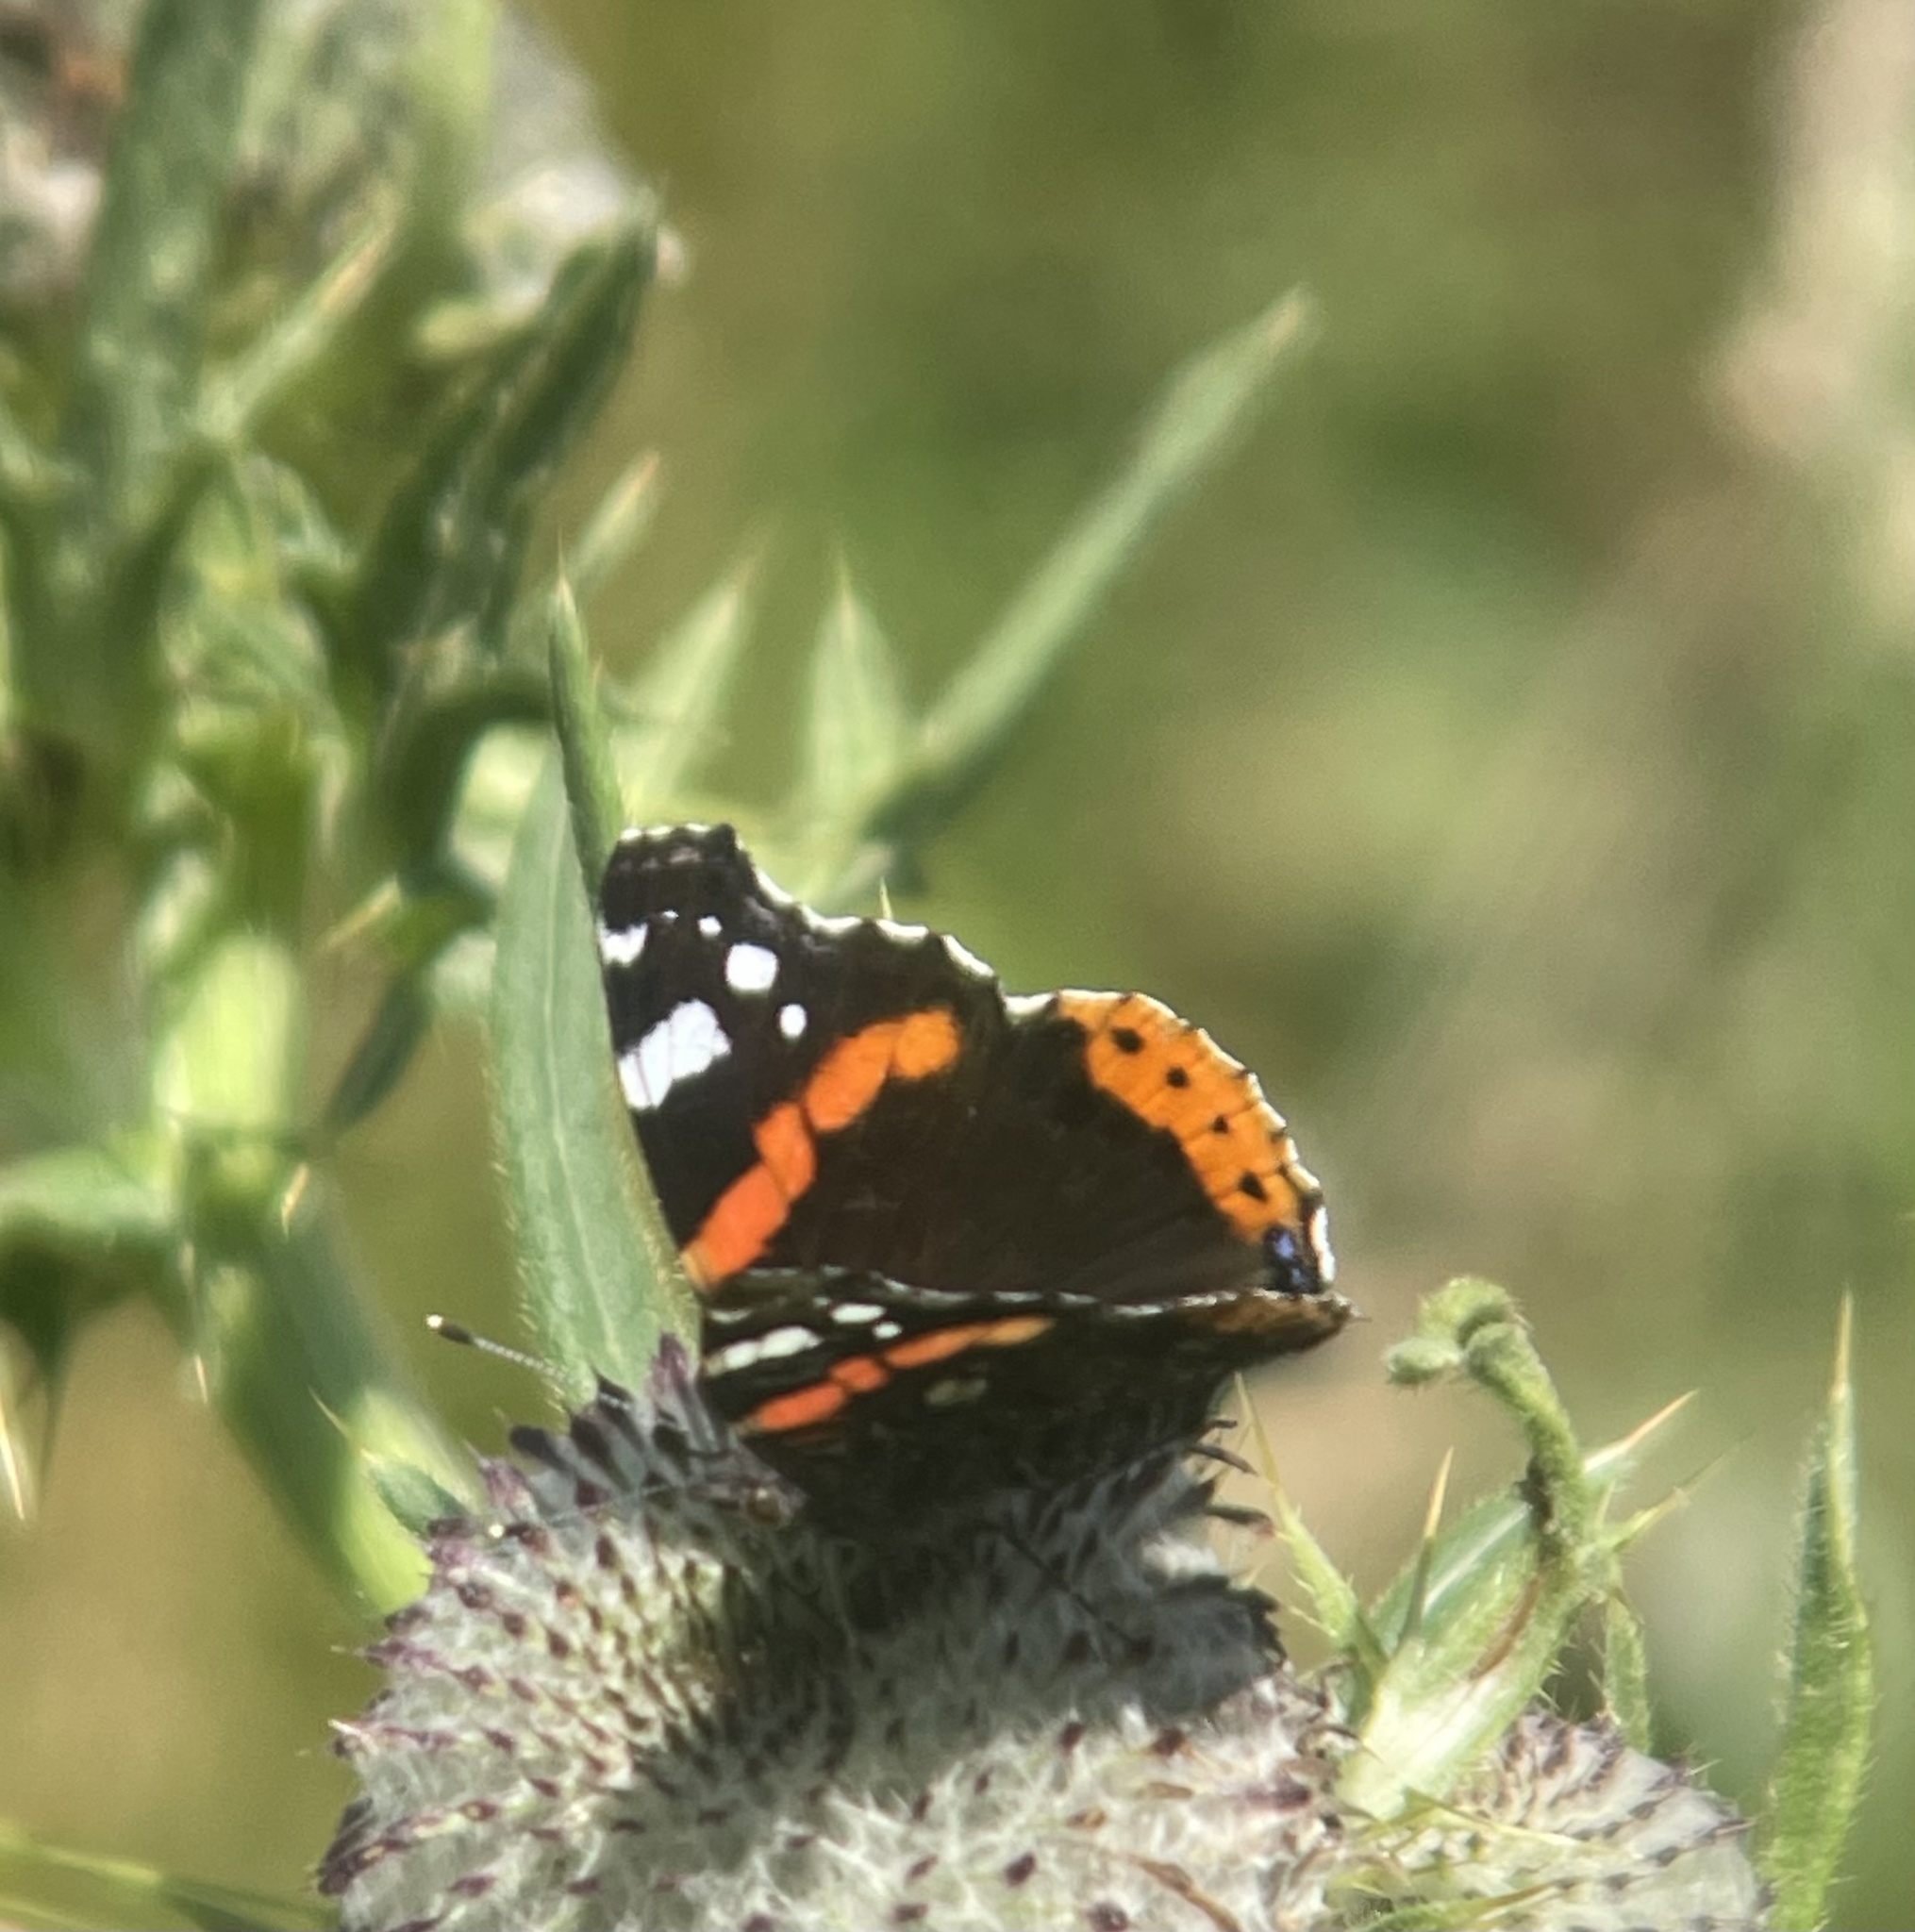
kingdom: Animalia
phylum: Arthropoda
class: Insecta
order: Lepidoptera
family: Nymphalidae
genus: Vanessa
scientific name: Vanessa atalanta
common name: Red admiral
